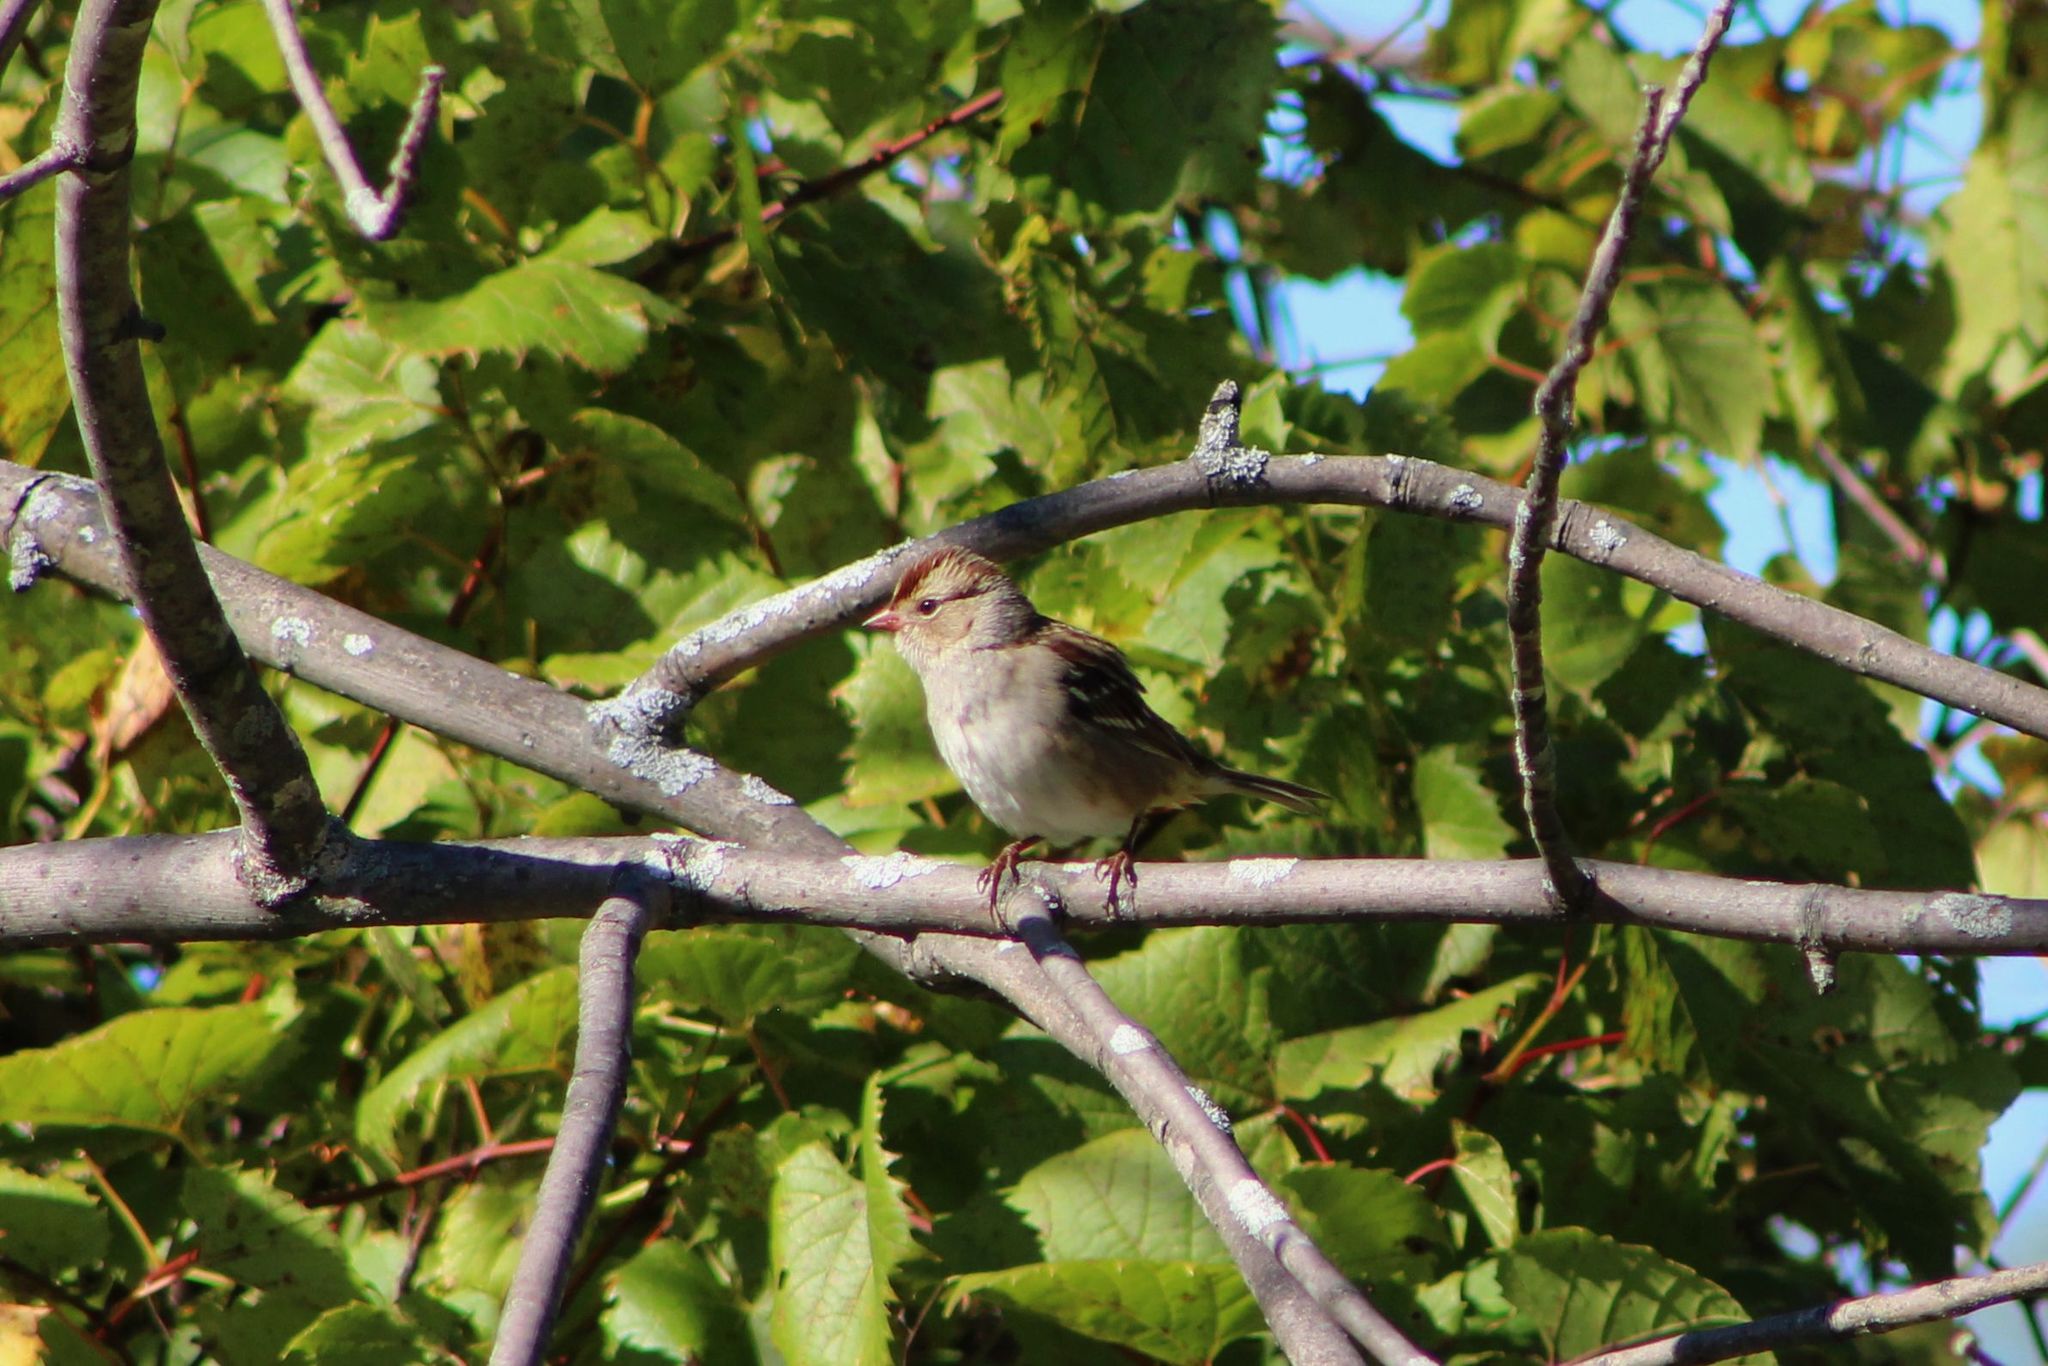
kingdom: Animalia
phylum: Chordata
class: Aves
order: Passeriformes
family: Passerellidae
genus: Zonotrichia
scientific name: Zonotrichia leucophrys
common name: White-crowned sparrow
